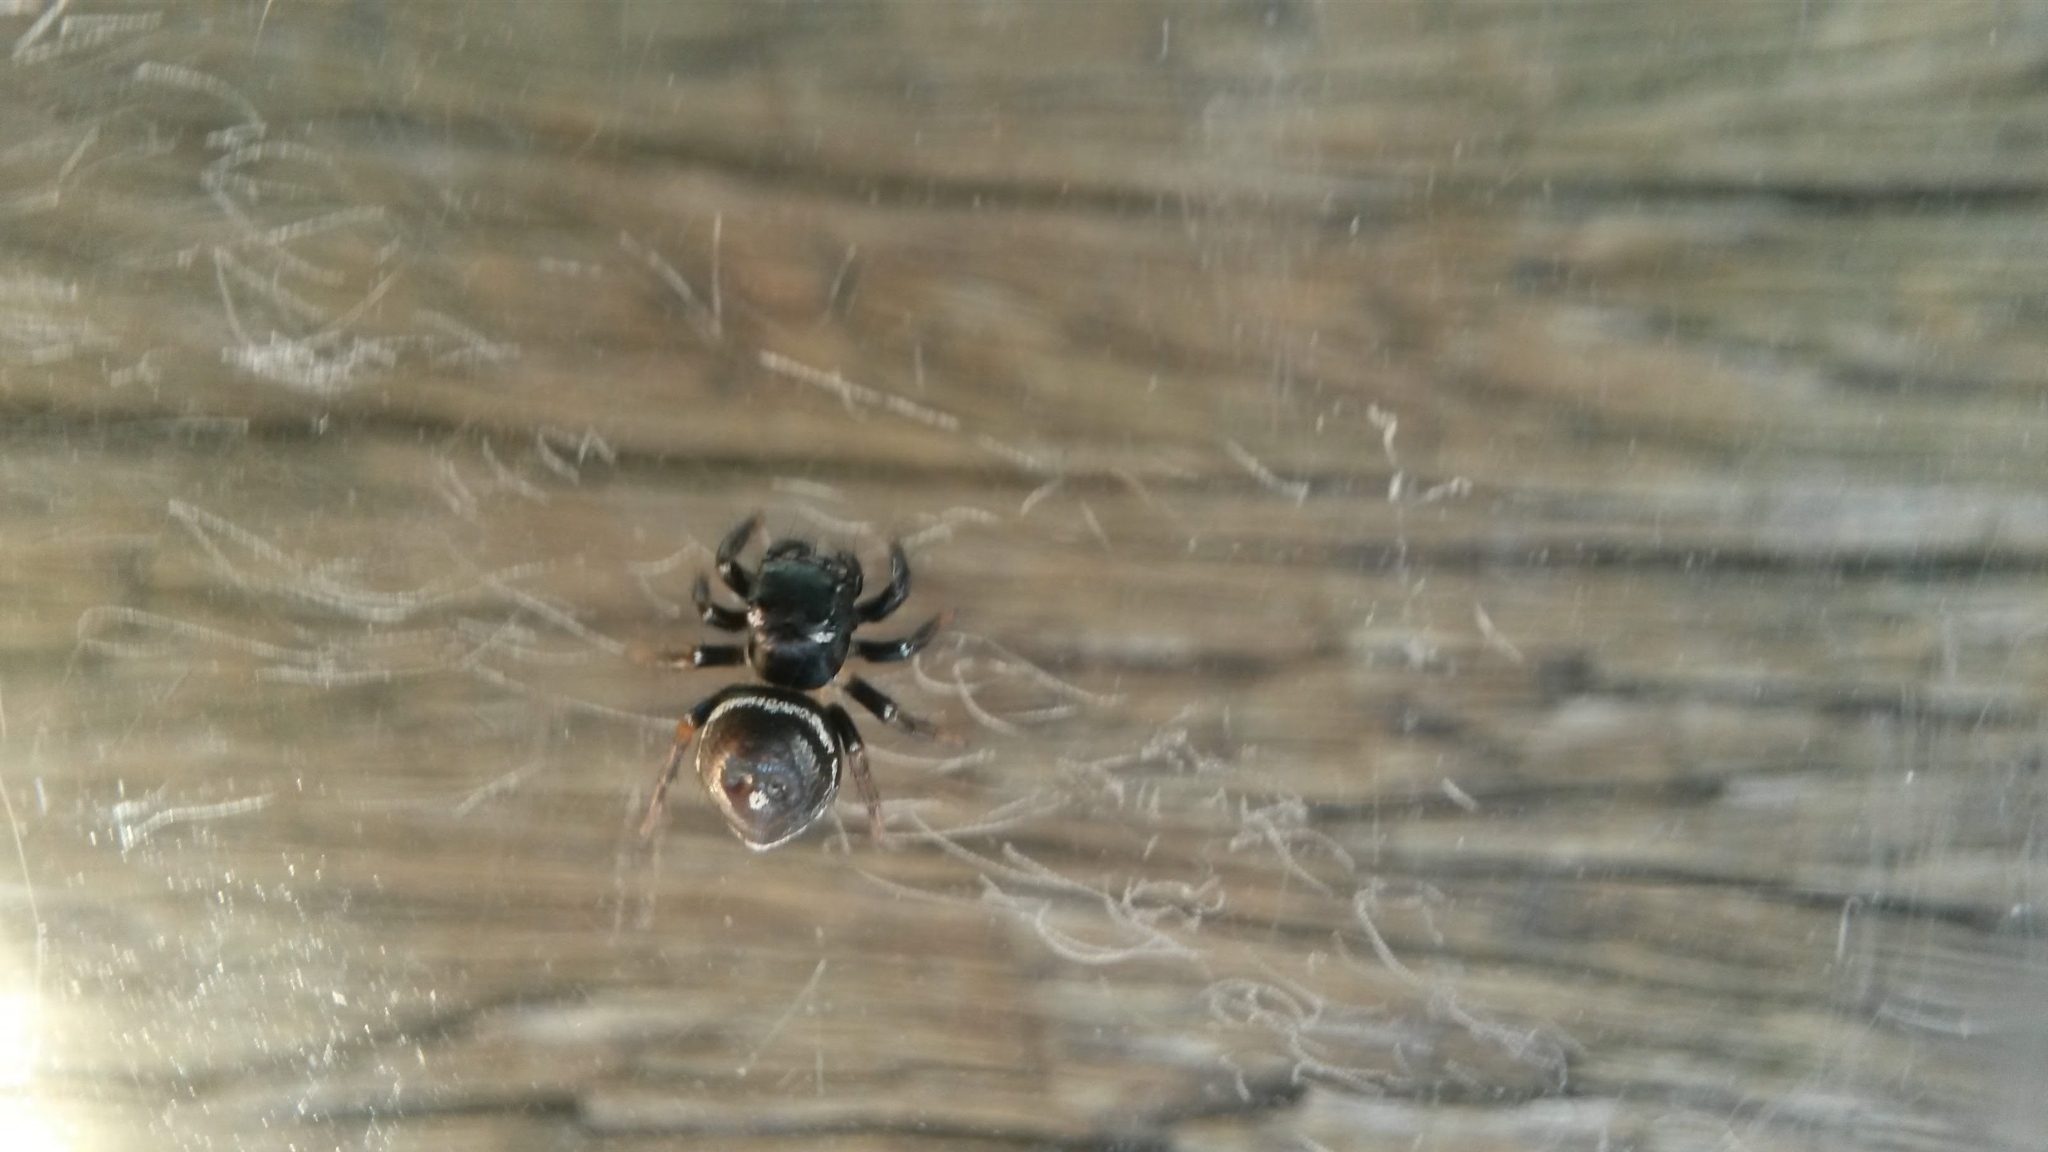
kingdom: Animalia
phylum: Arthropoda
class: Arachnida
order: Araneae
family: Salticidae
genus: Zenodorus
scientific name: Zenodorus orbiculatus
